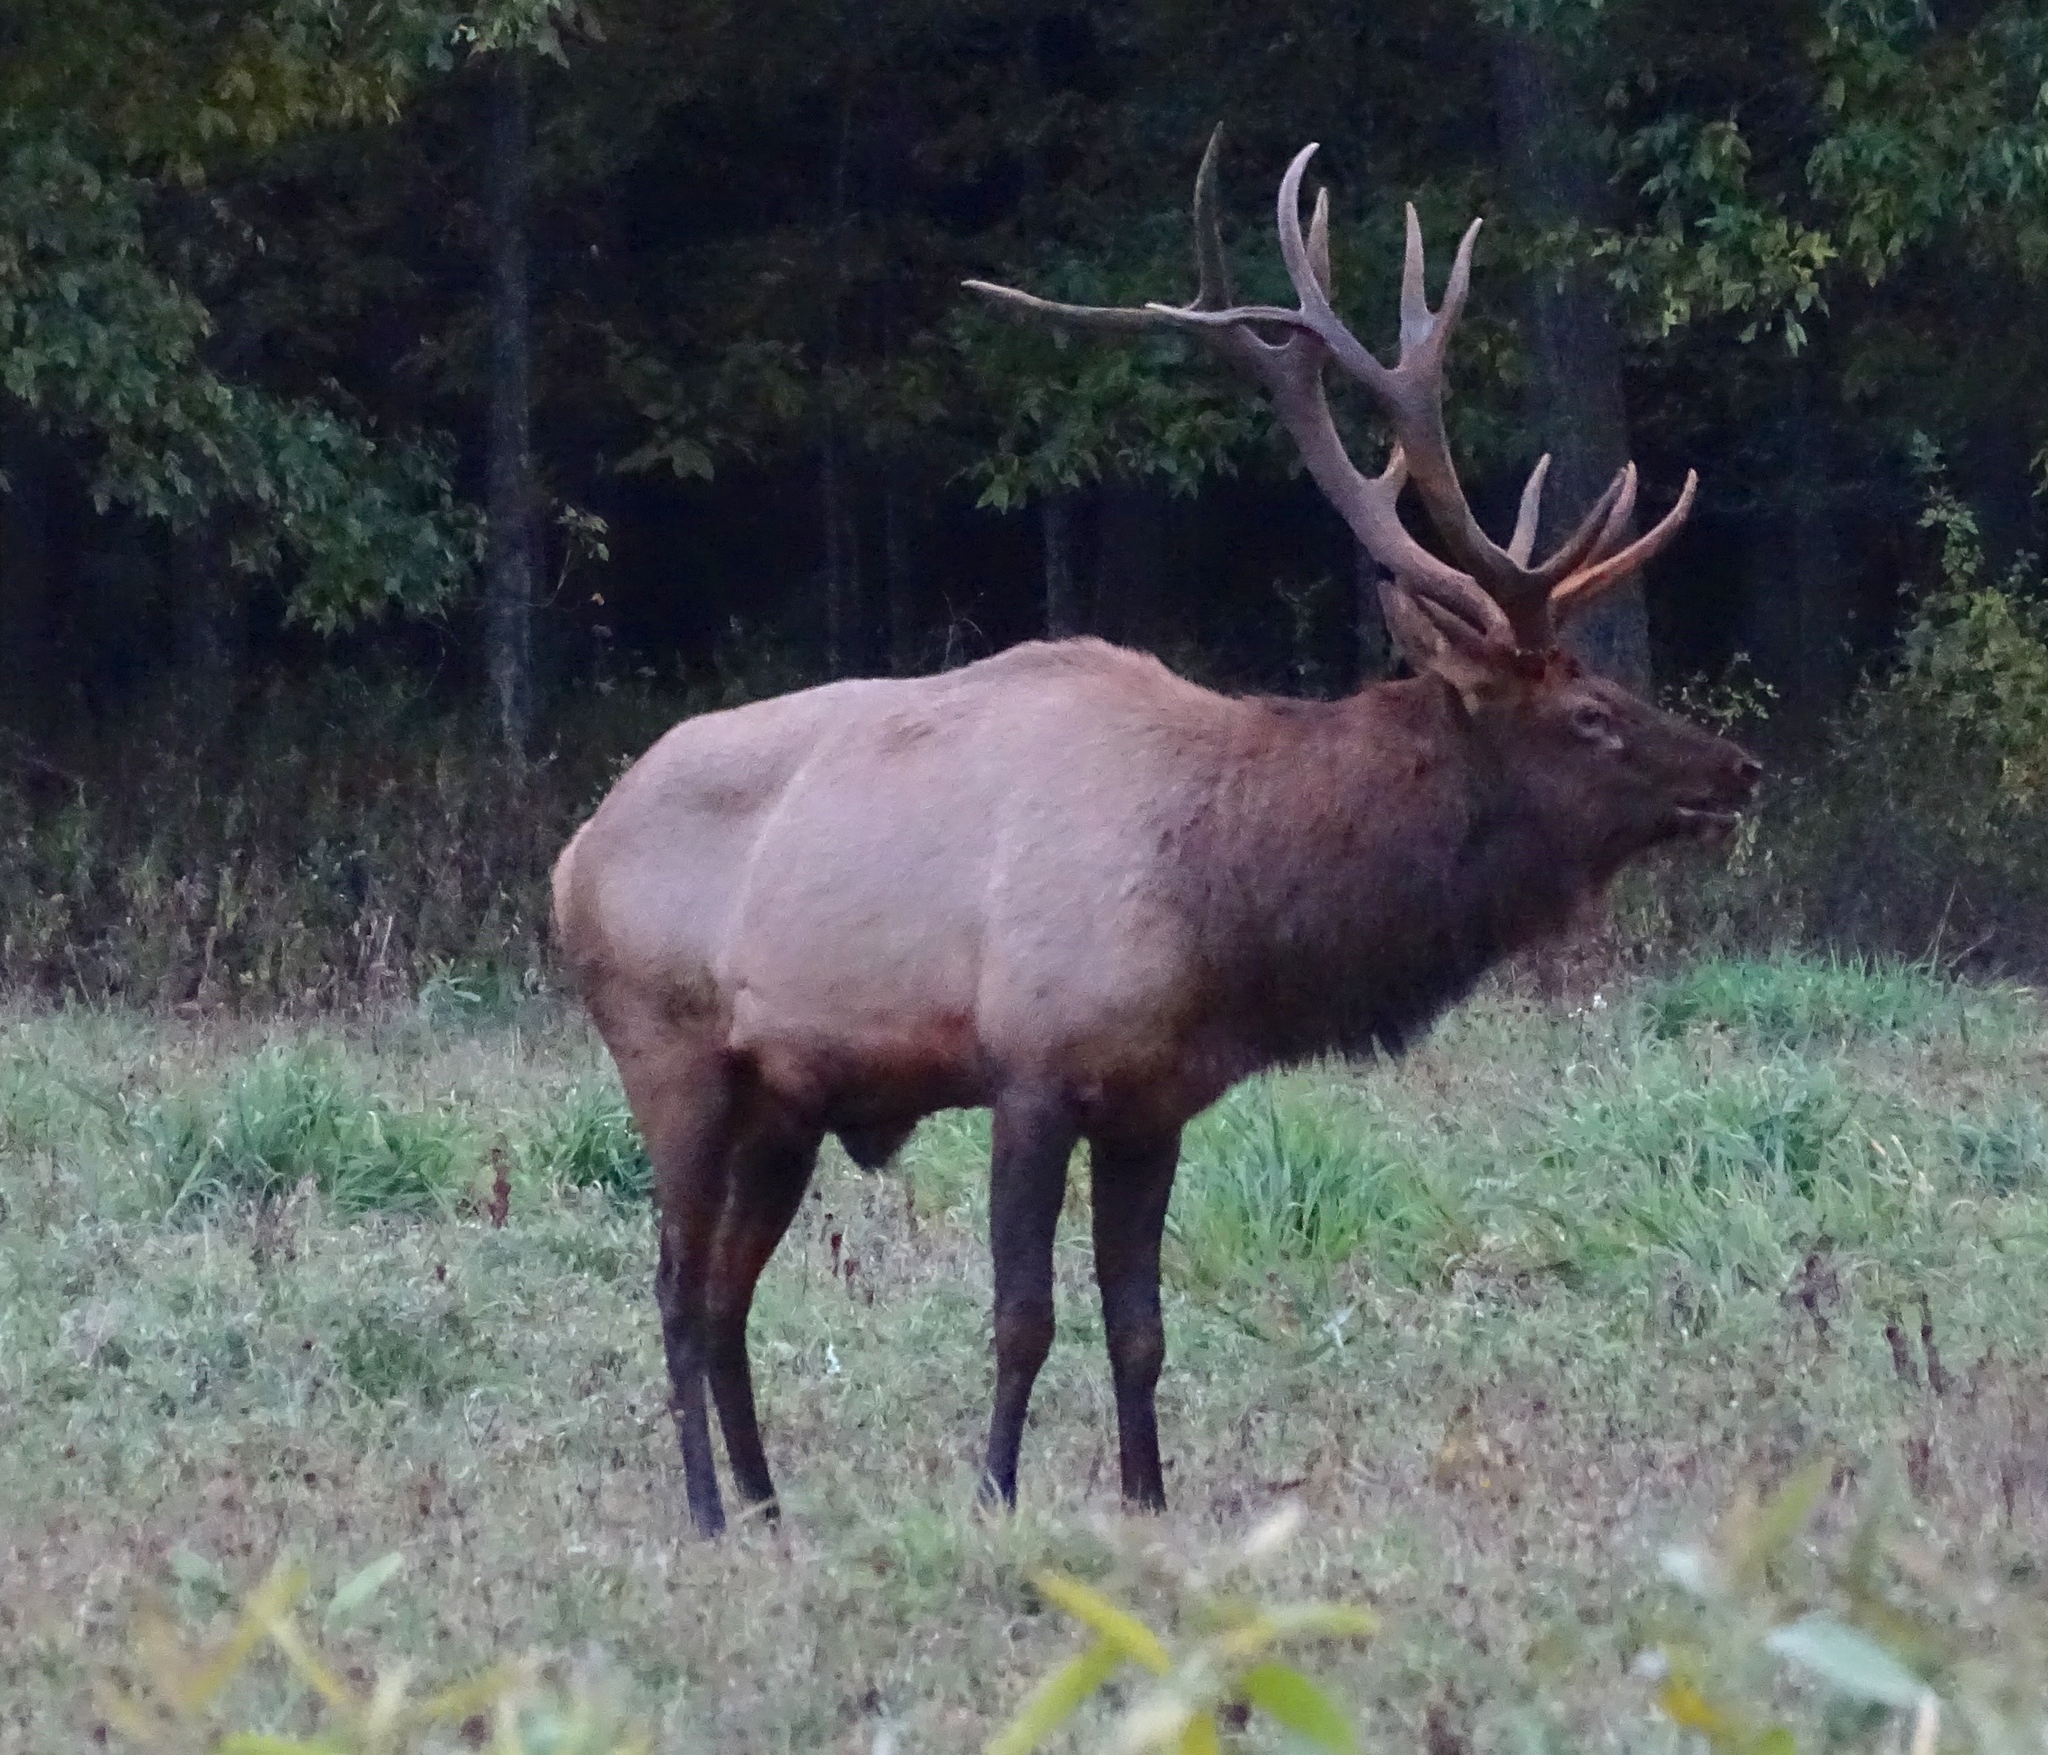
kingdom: Animalia
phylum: Chordata
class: Mammalia
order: Artiodactyla
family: Cervidae
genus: Cervus
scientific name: Cervus elaphus
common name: Red deer
